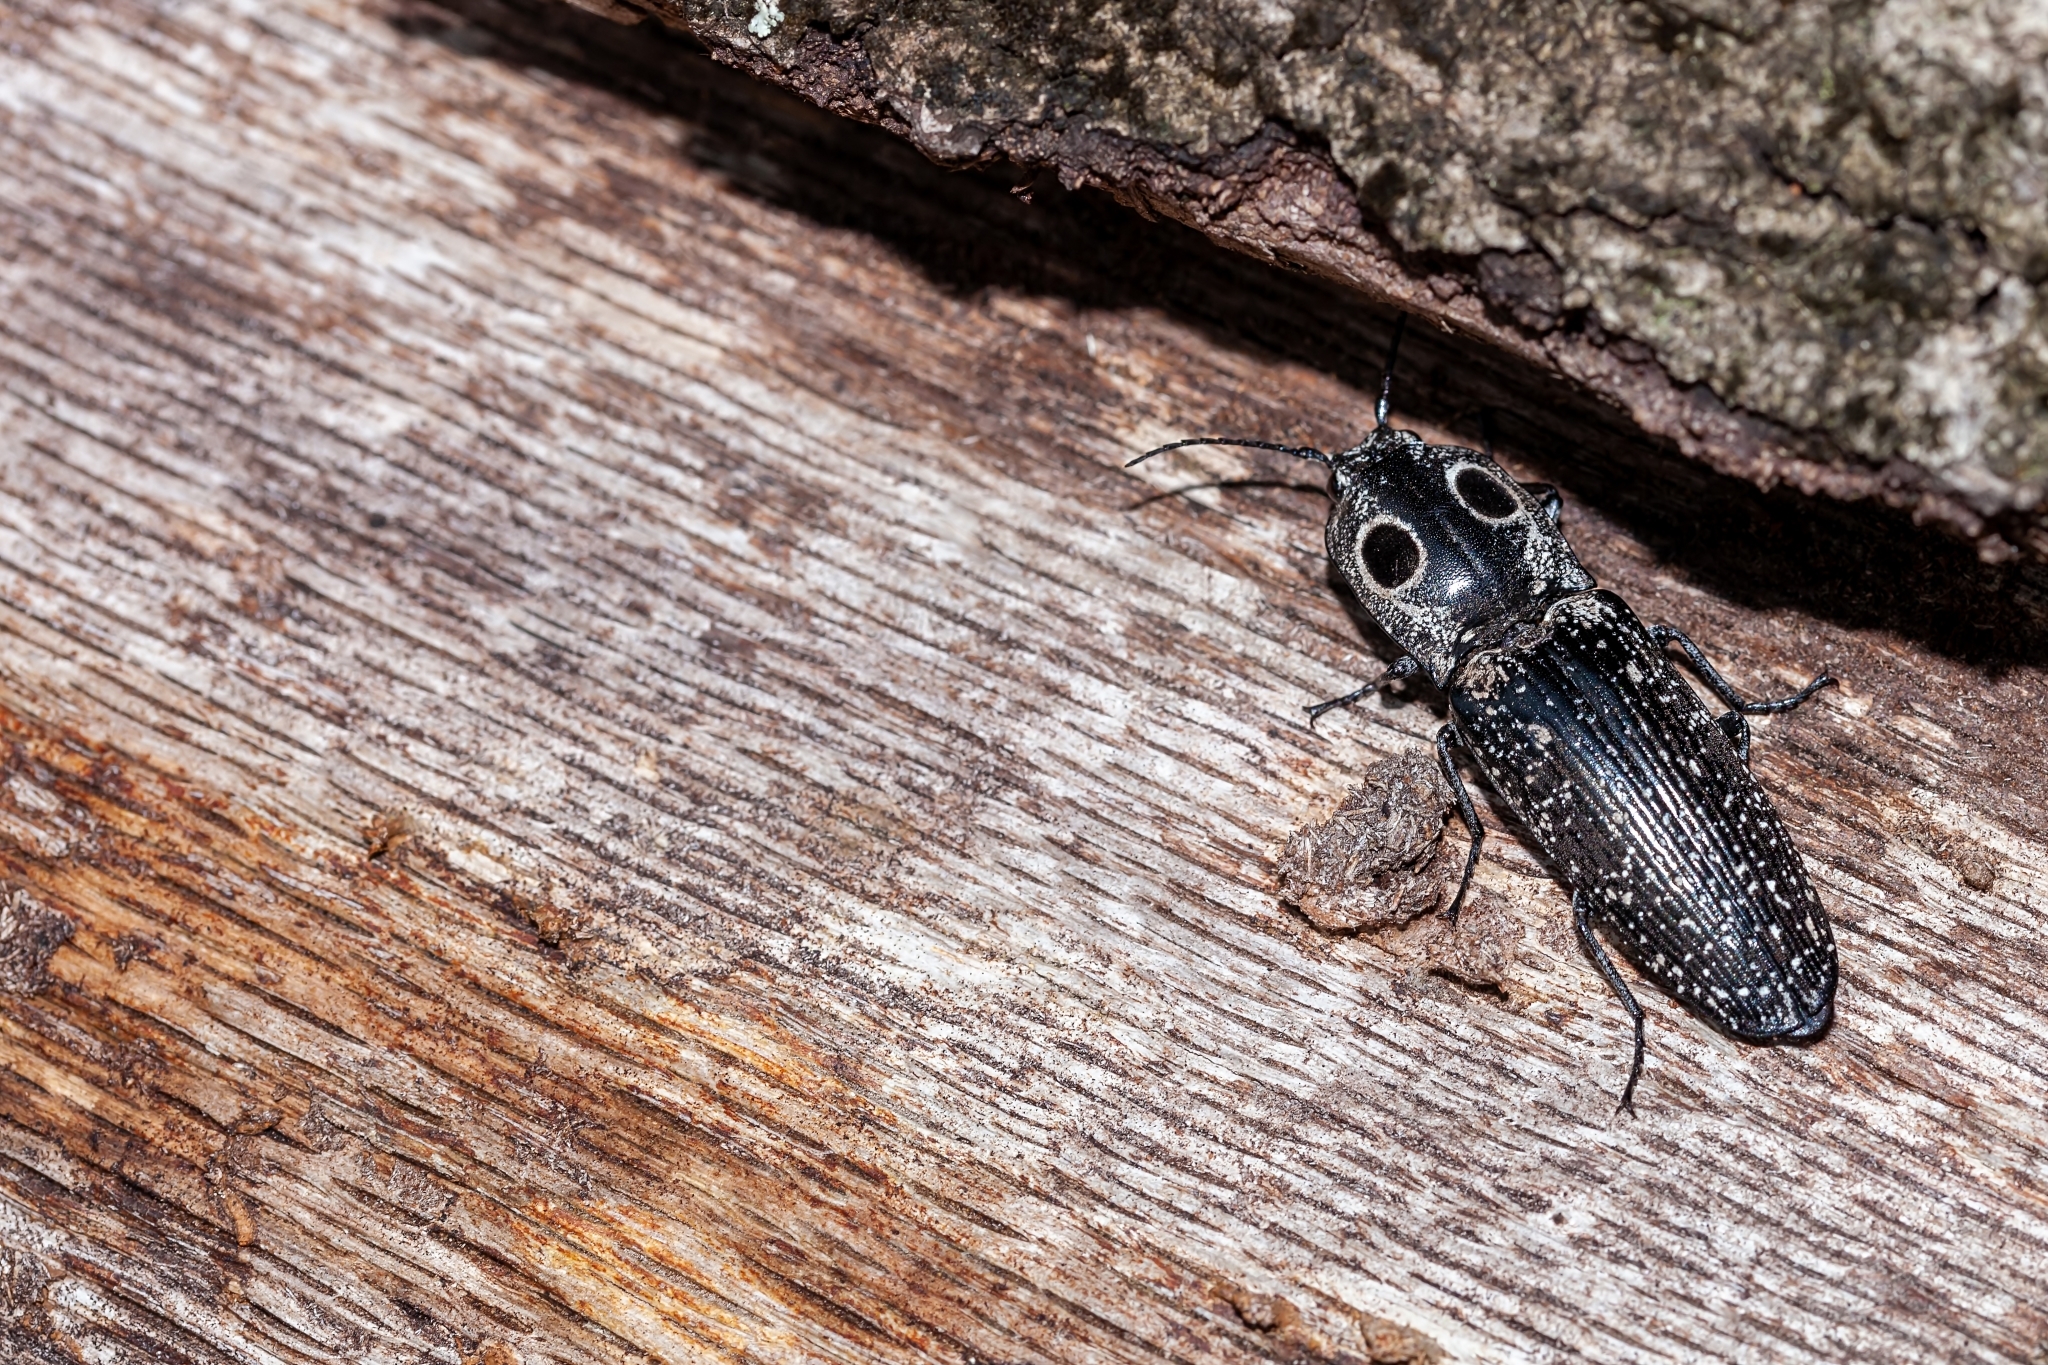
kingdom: Animalia
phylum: Arthropoda
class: Insecta
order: Coleoptera
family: Elateridae
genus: Alaus
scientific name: Alaus oculatus
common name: Eastern eyed click beetle
